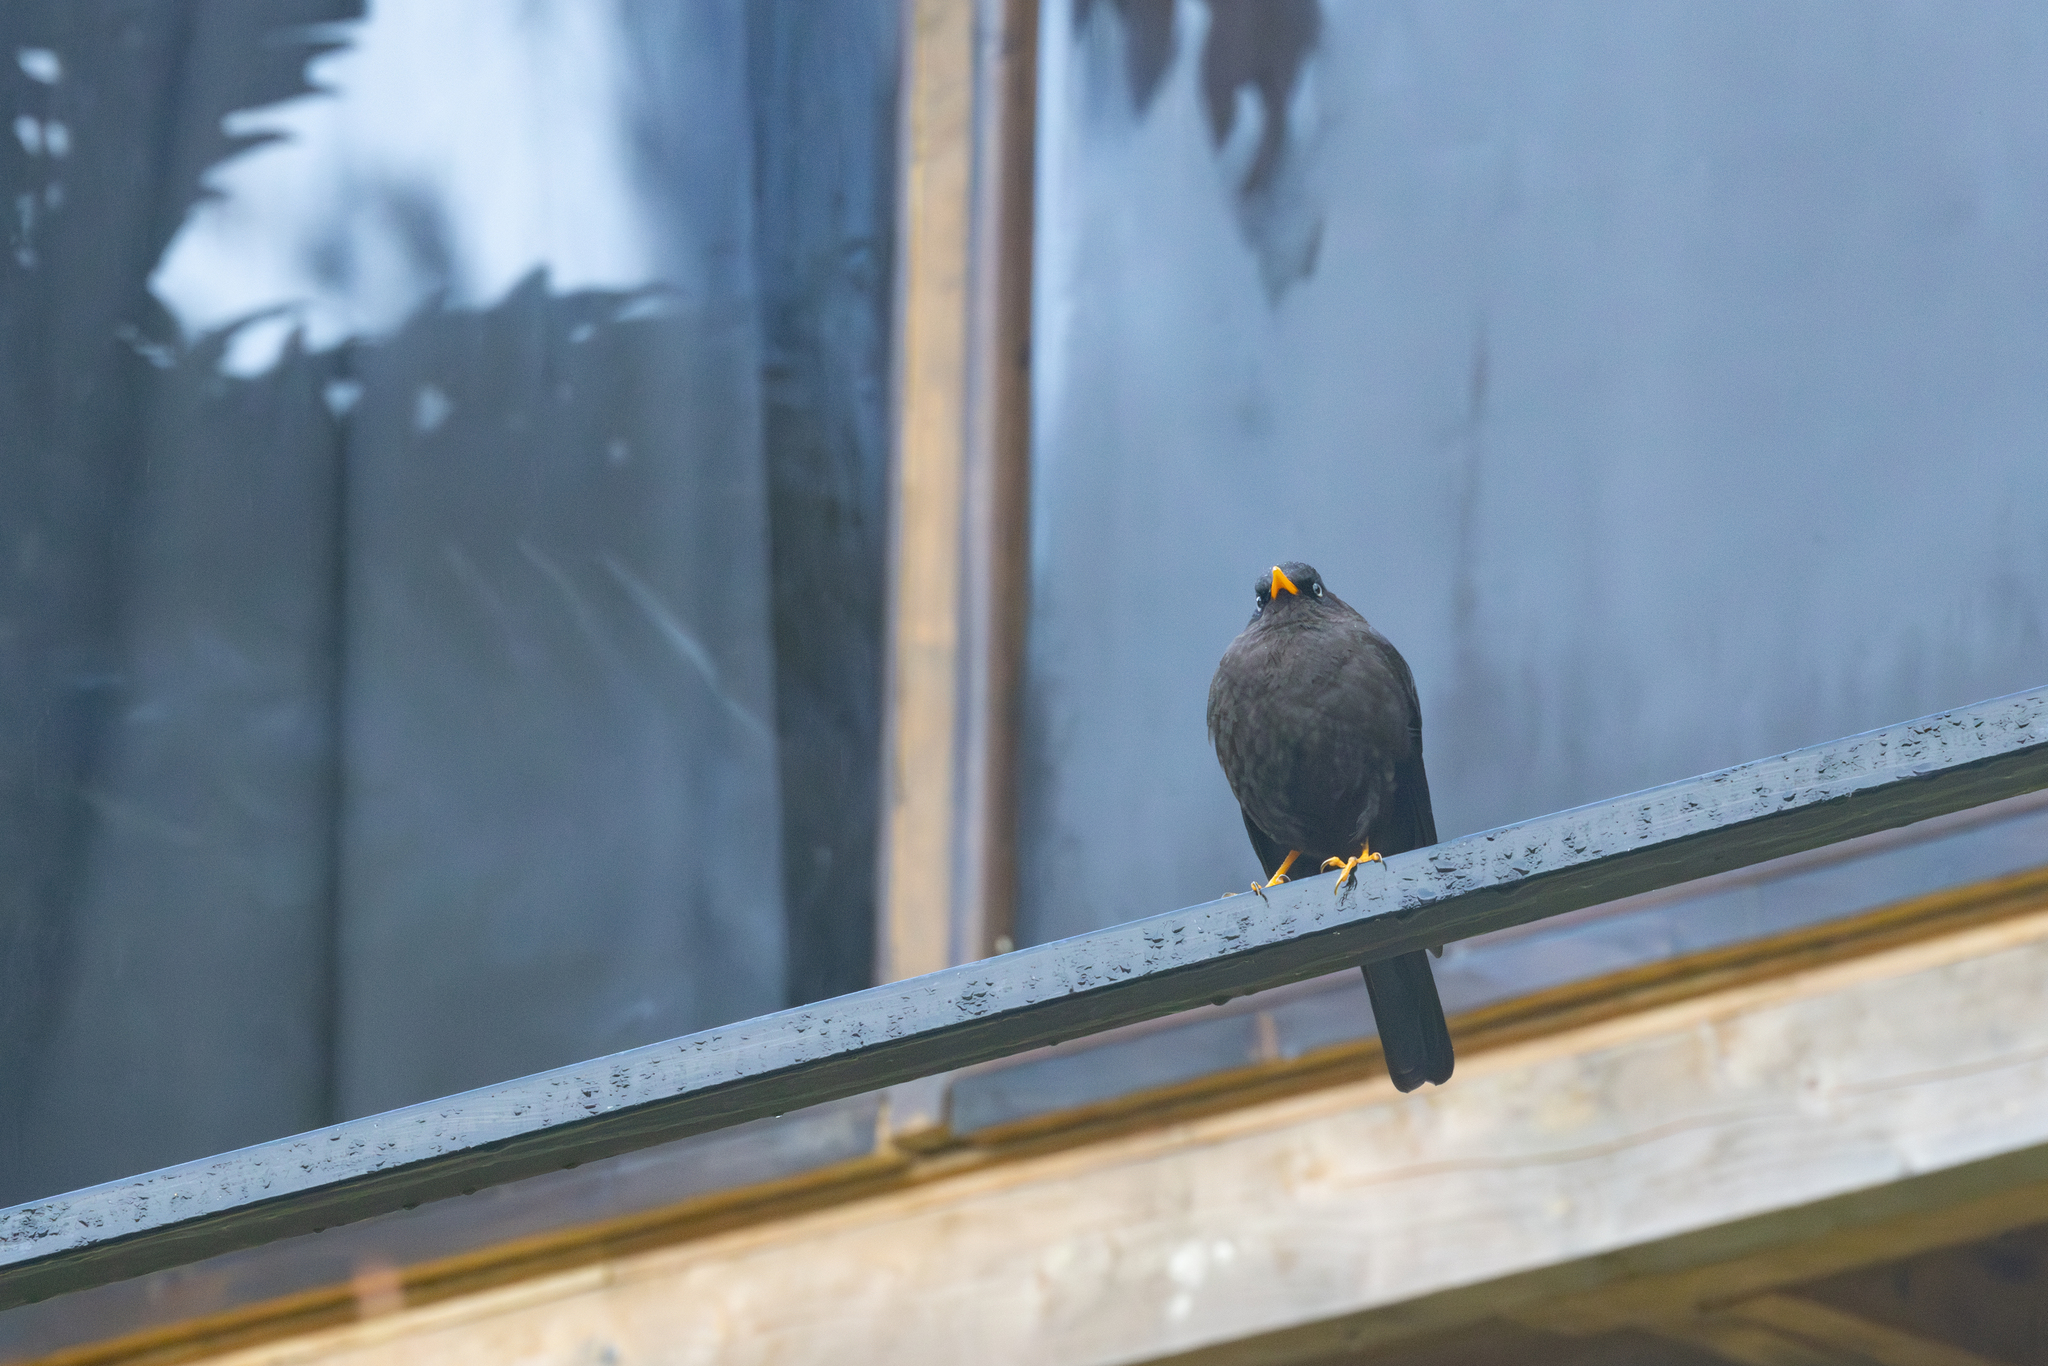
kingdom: Animalia
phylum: Chordata
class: Aves
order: Passeriformes
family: Turdidae
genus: Turdus
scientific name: Turdus nigrescens
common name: Sooty thrush
